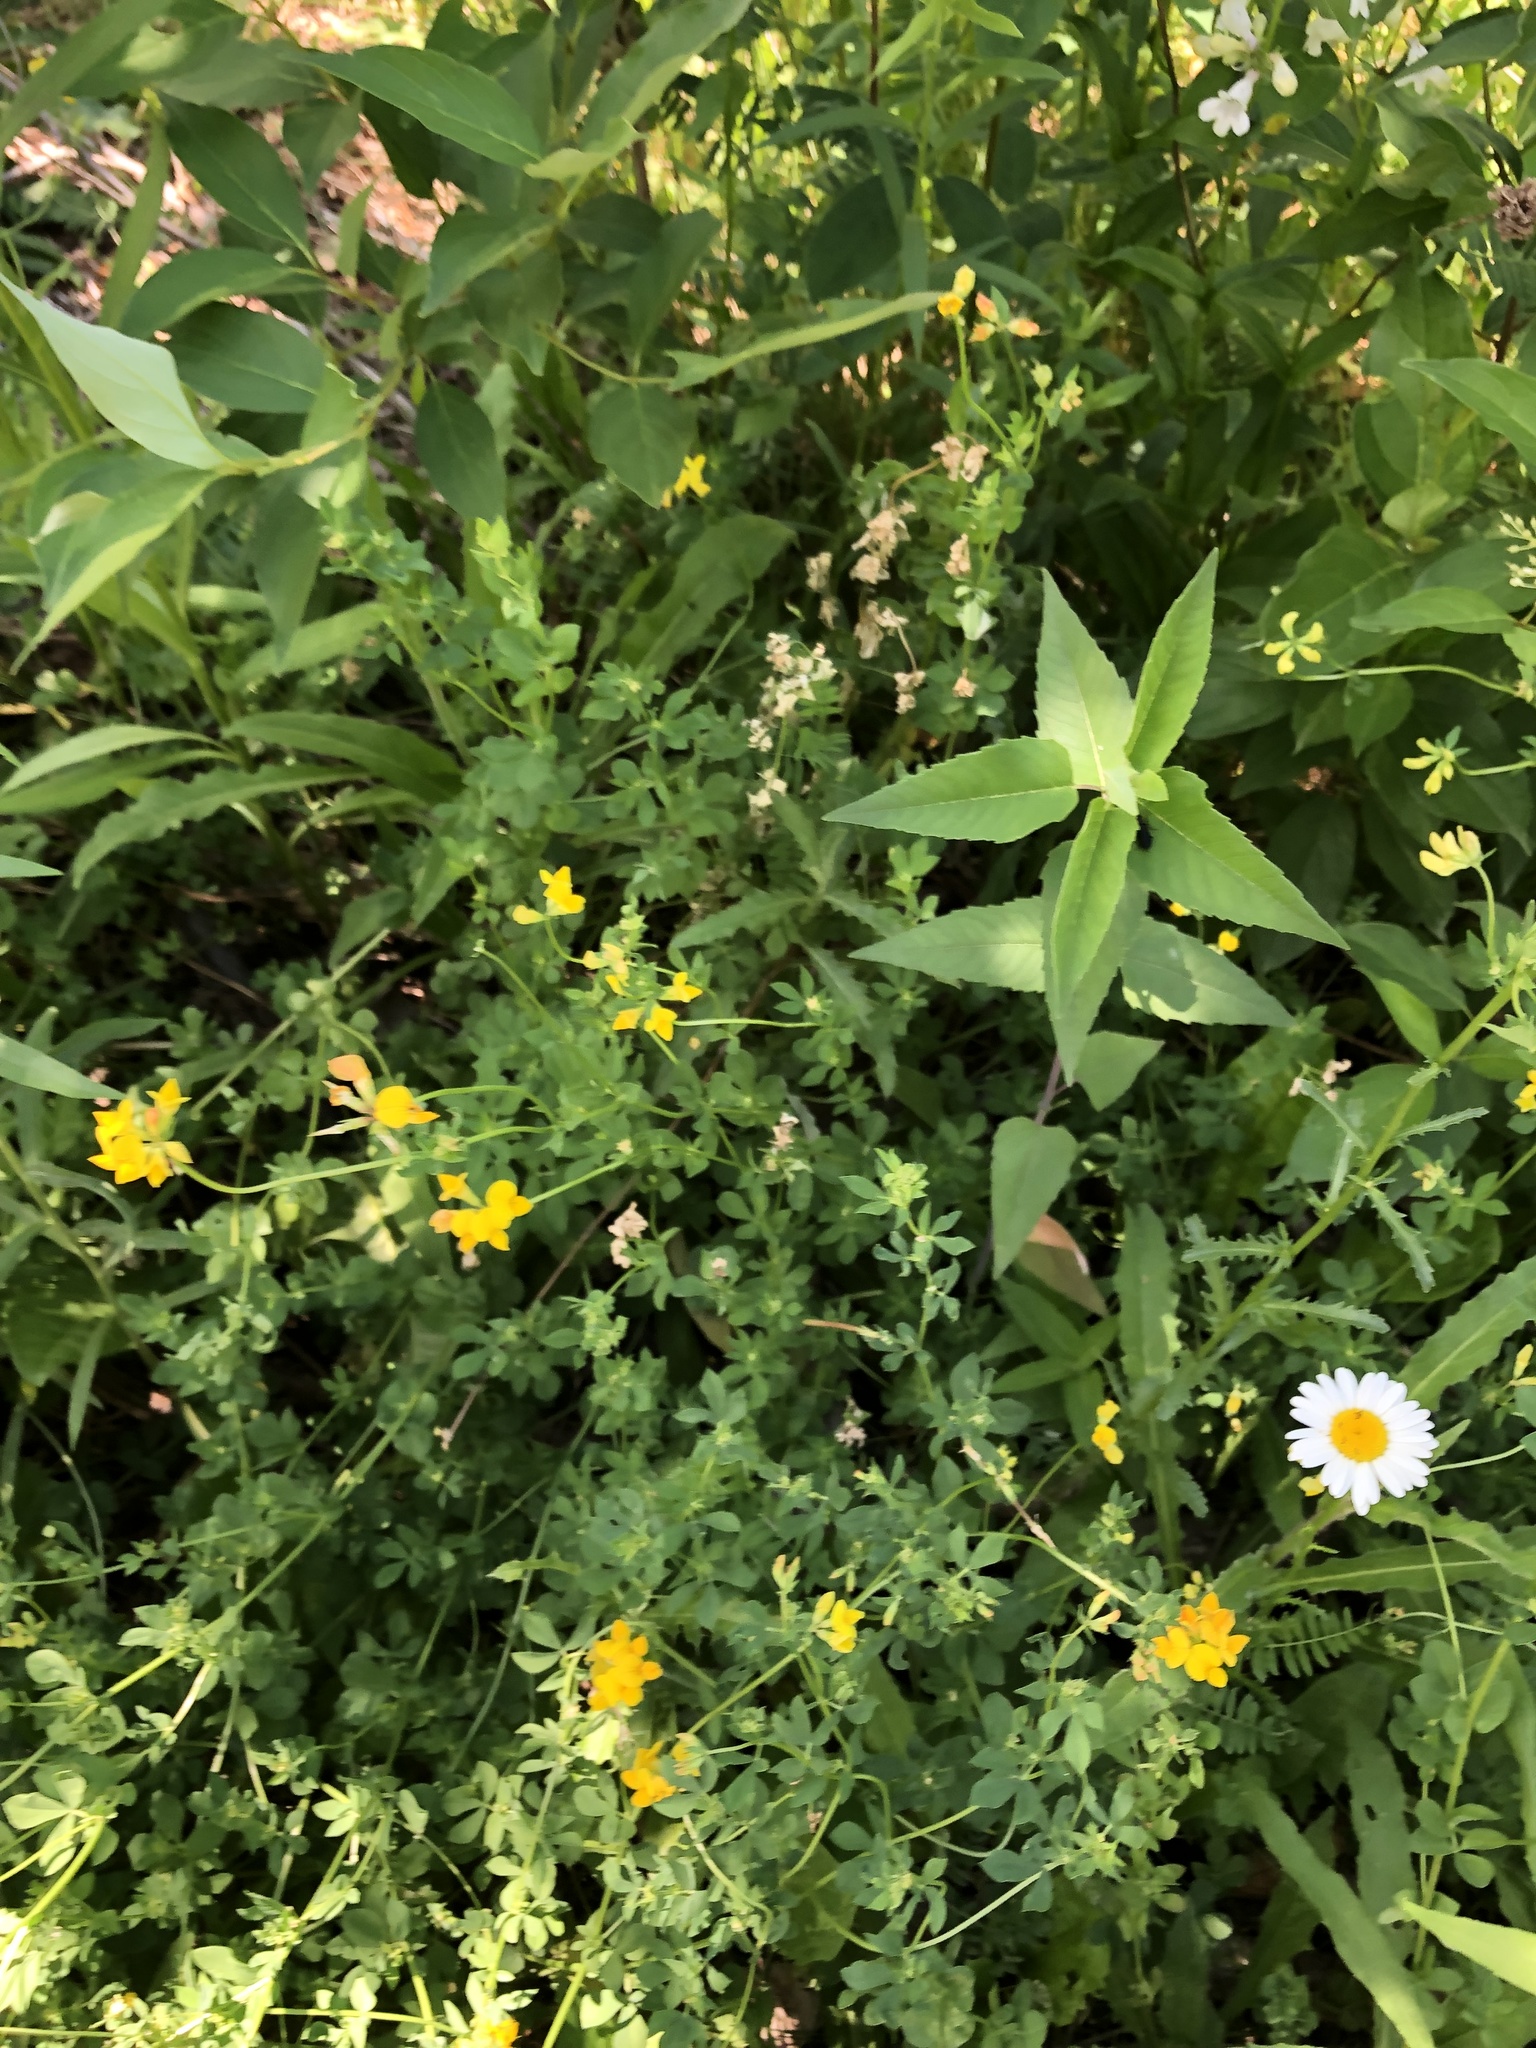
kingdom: Plantae
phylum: Tracheophyta
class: Magnoliopsida
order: Fabales
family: Fabaceae
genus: Lotus
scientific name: Lotus corniculatus
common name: Common bird's-foot-trefoil
